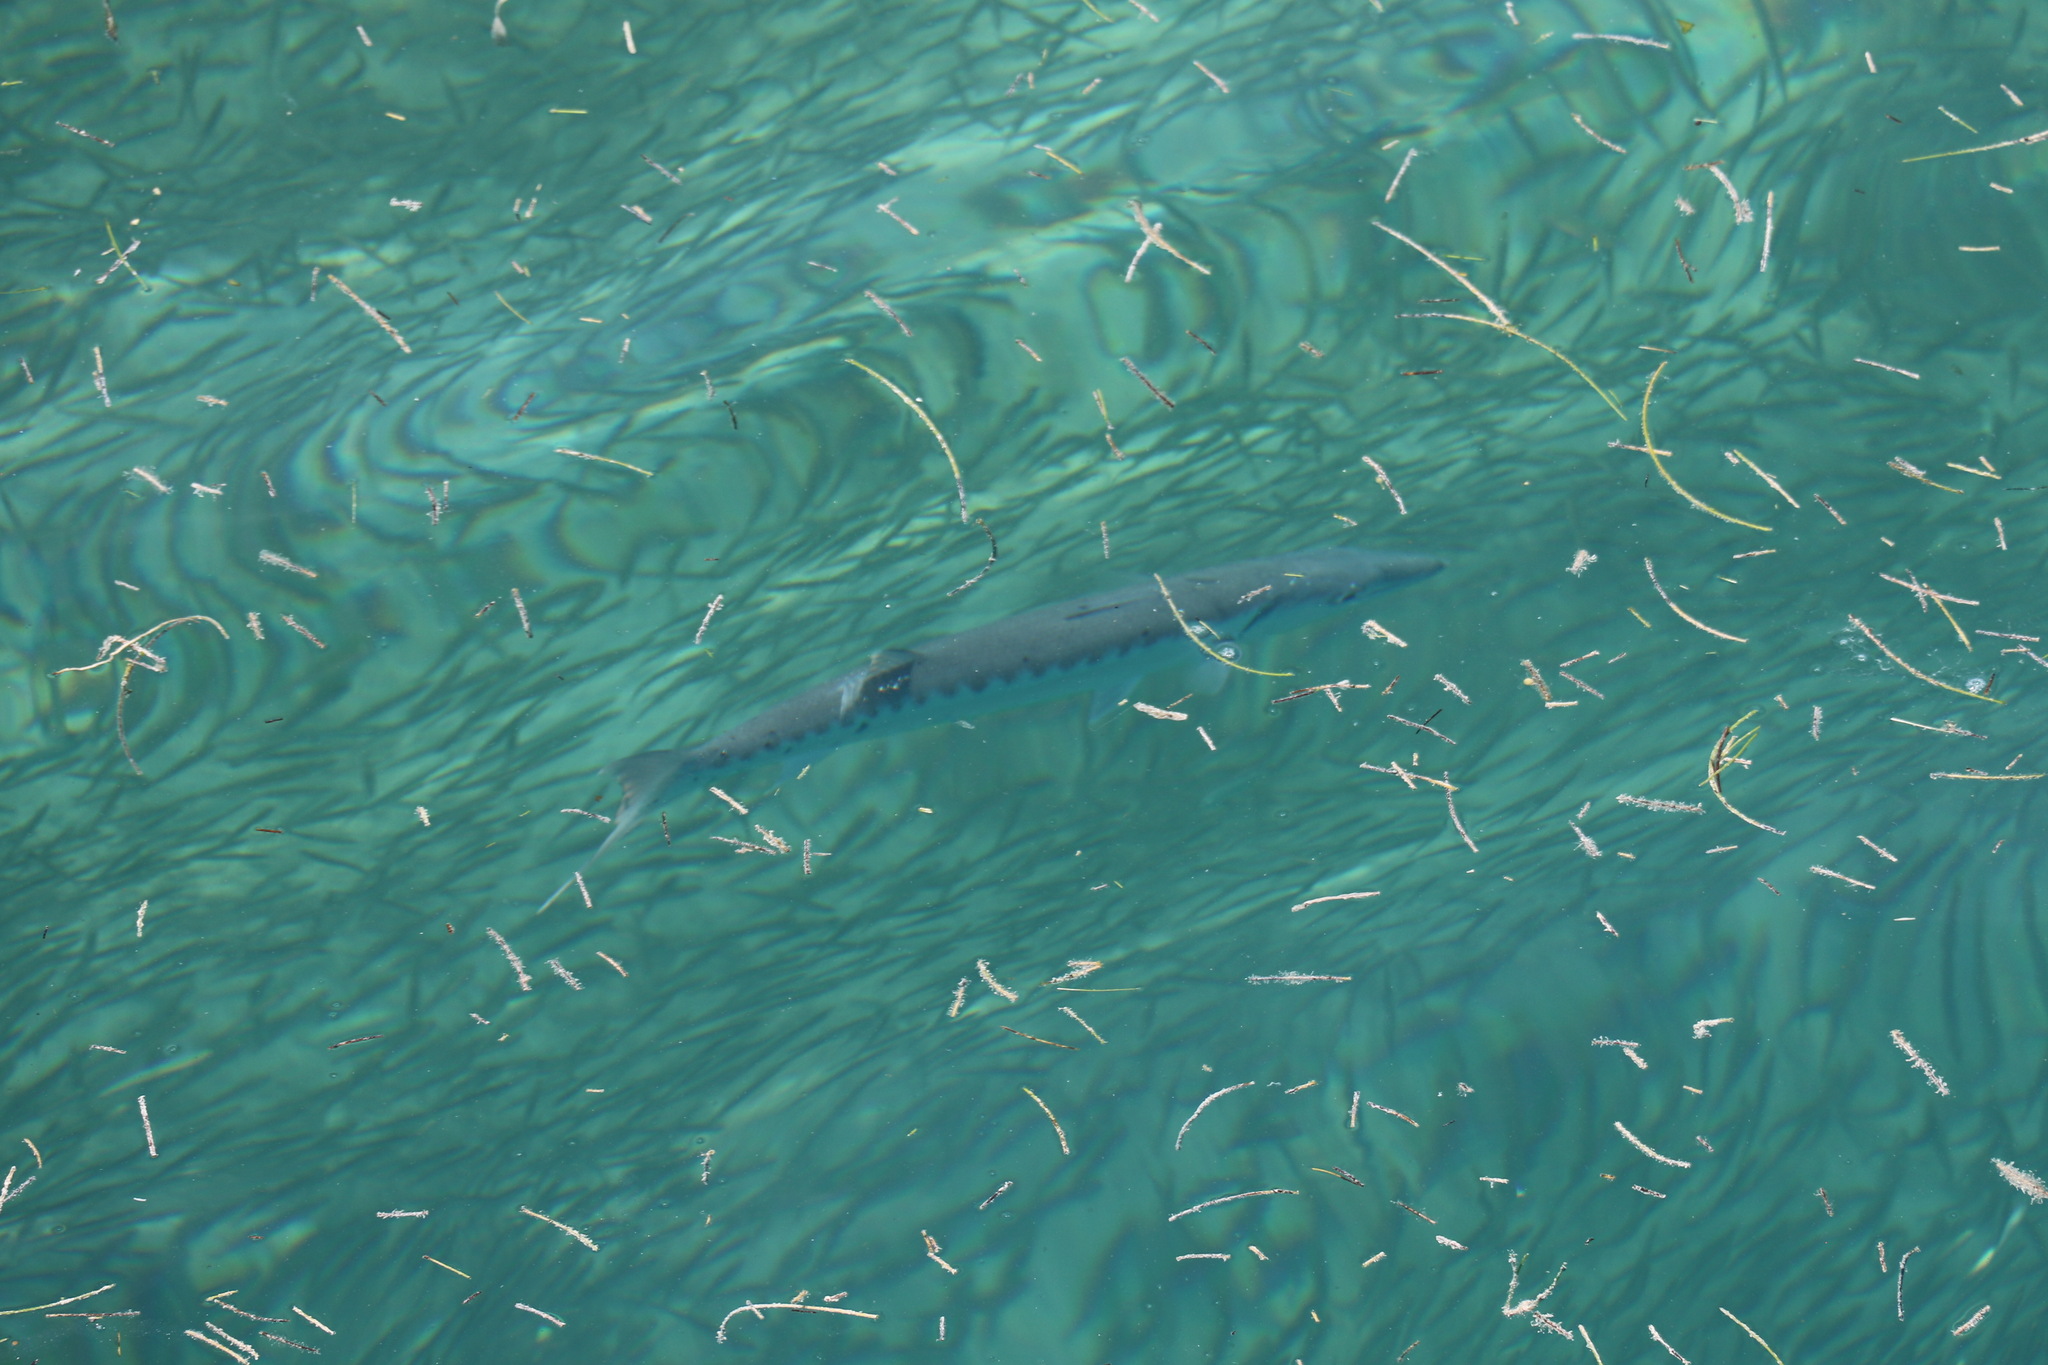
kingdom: Animalia
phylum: Chordata
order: Perciformes
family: Sphyraenidae
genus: Sphyraena
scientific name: Sphyraena barracuda
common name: Great barracuda
